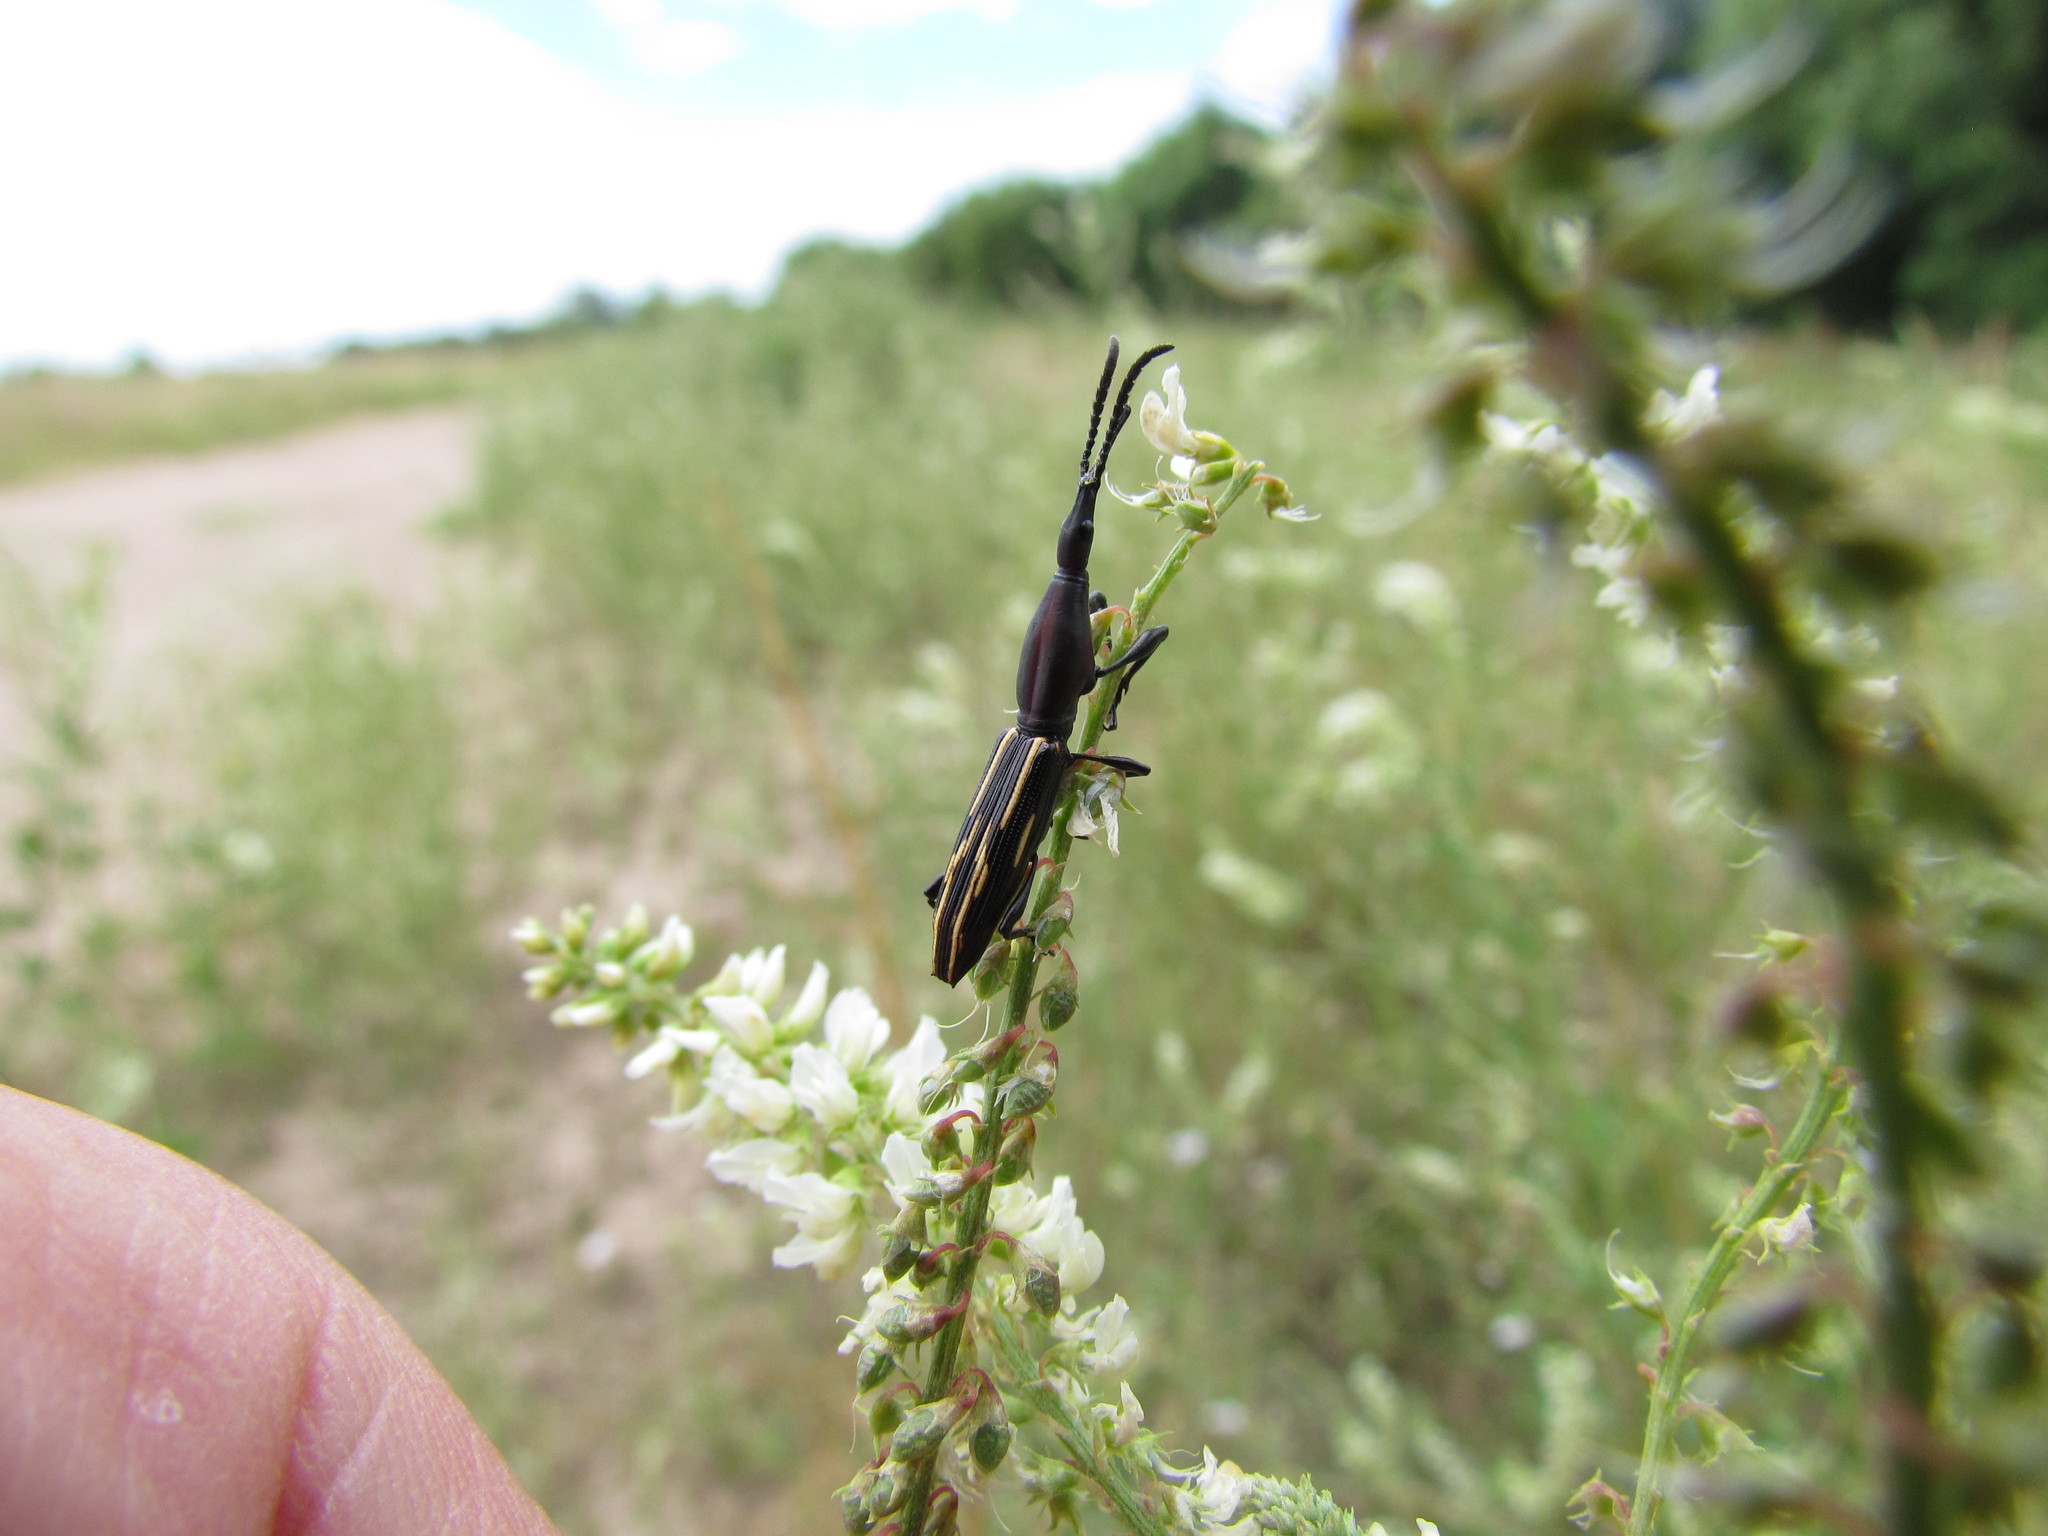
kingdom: Animalia
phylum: Arthropoda
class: Insecta
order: Coleoptera
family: Brentidae
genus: Brentus
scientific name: Brentus rufiventris
